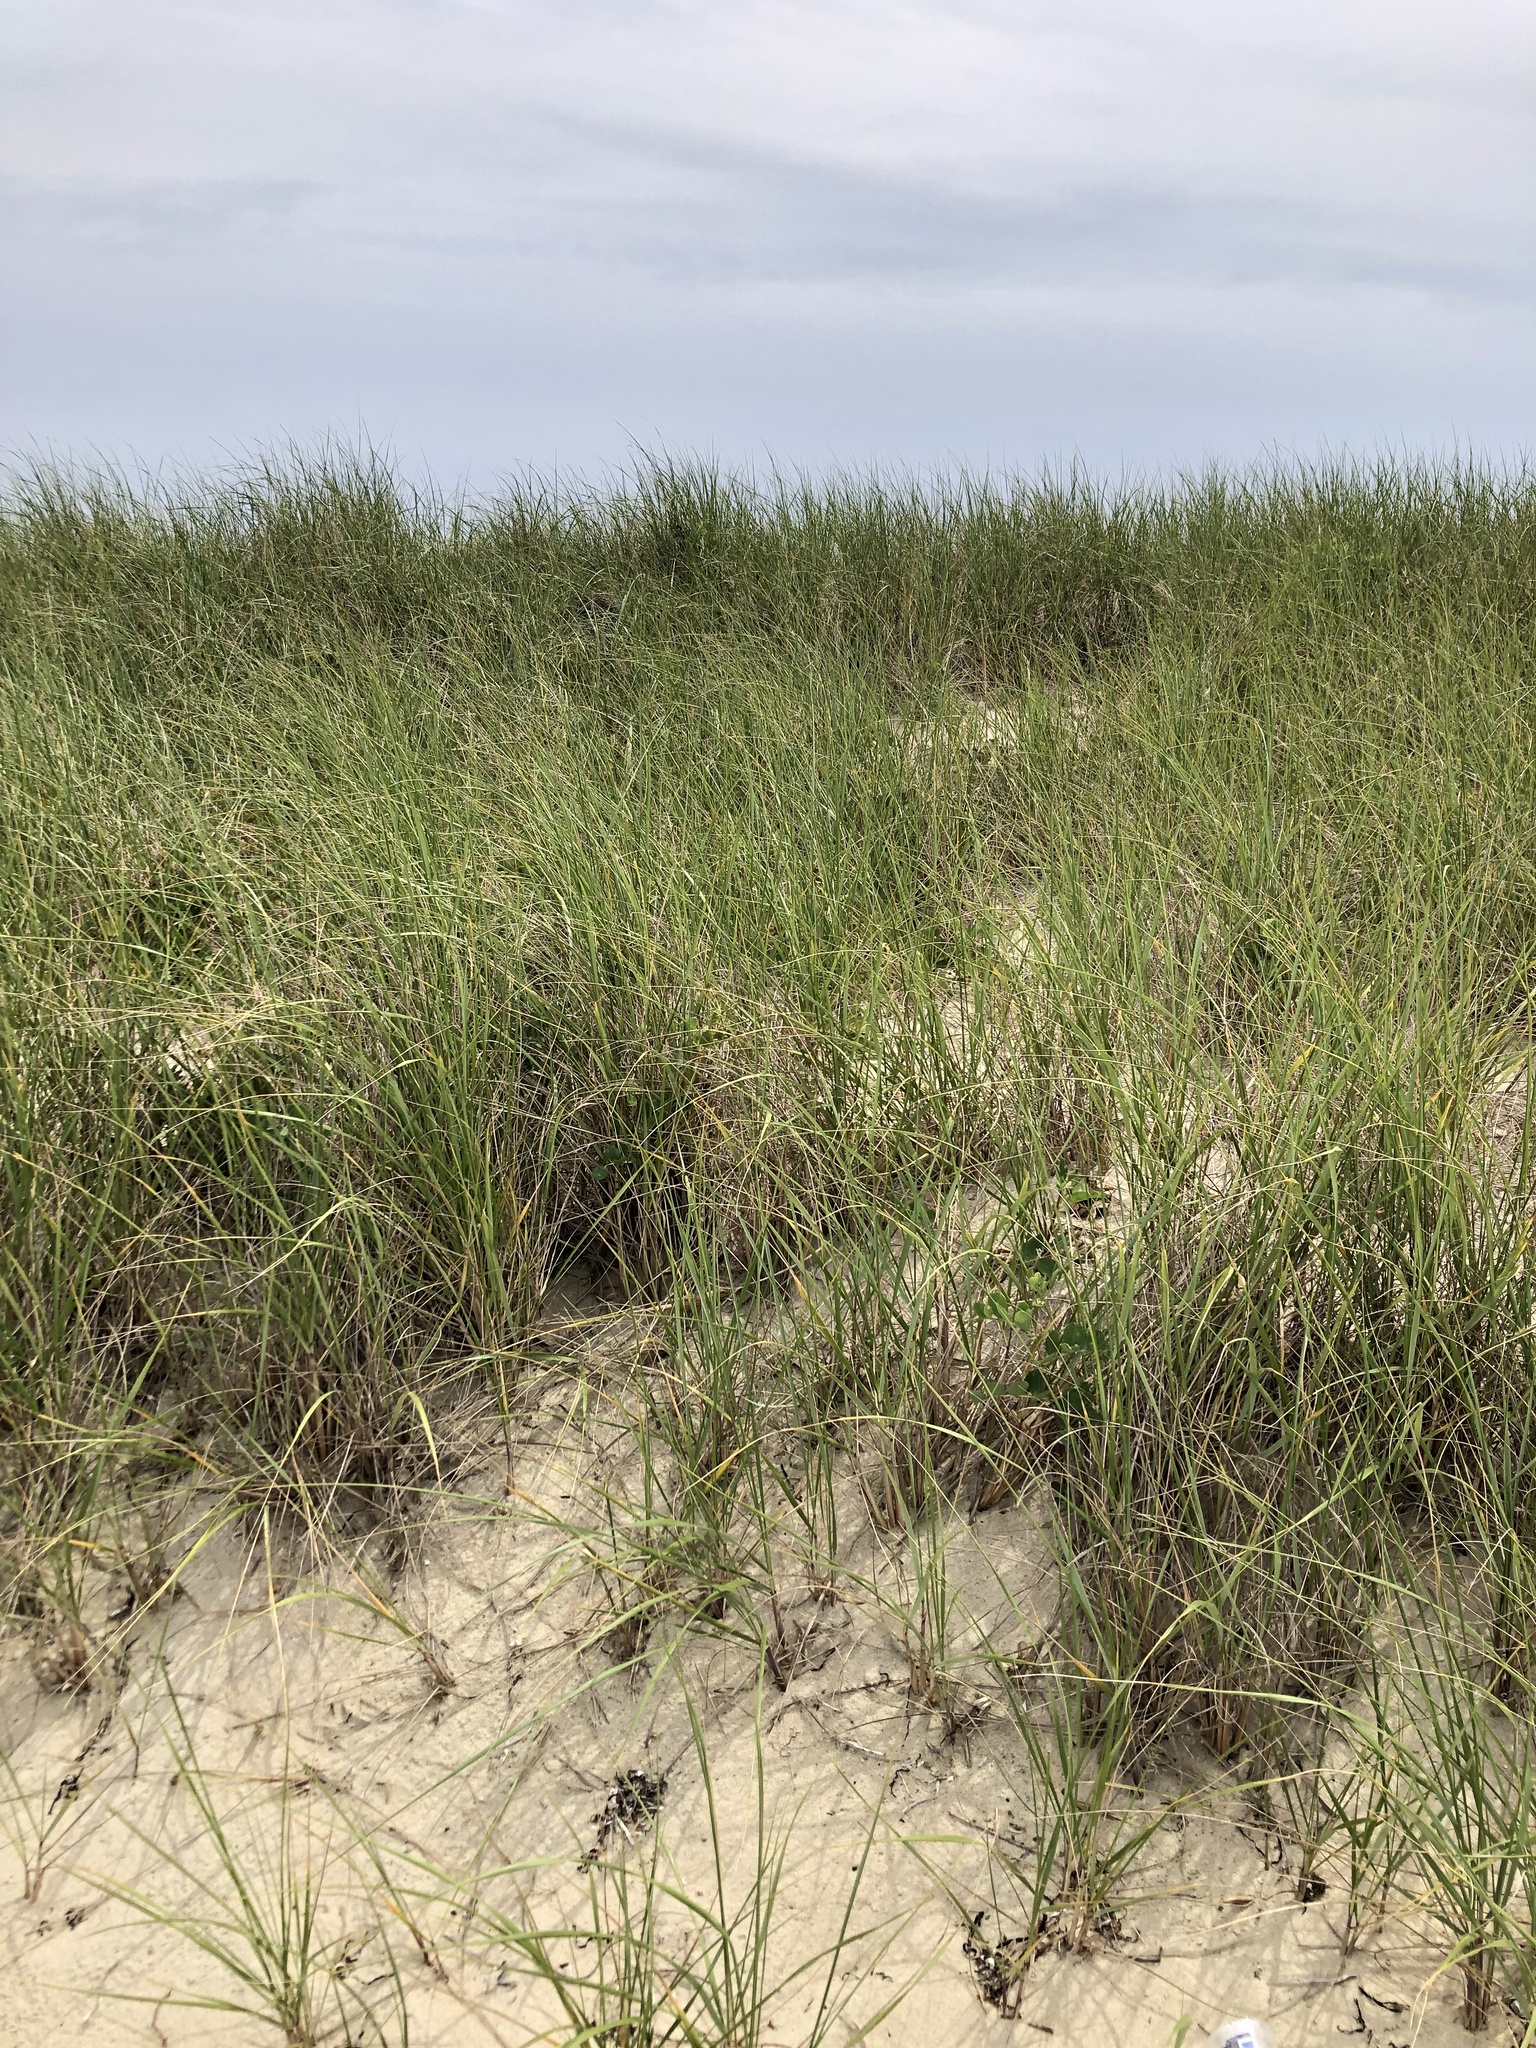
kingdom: Plantae
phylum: Tracheophyta
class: Liliopsida
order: Poales
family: Poaceae
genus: Calamagrostis
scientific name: Calamagrostis breviligulata
